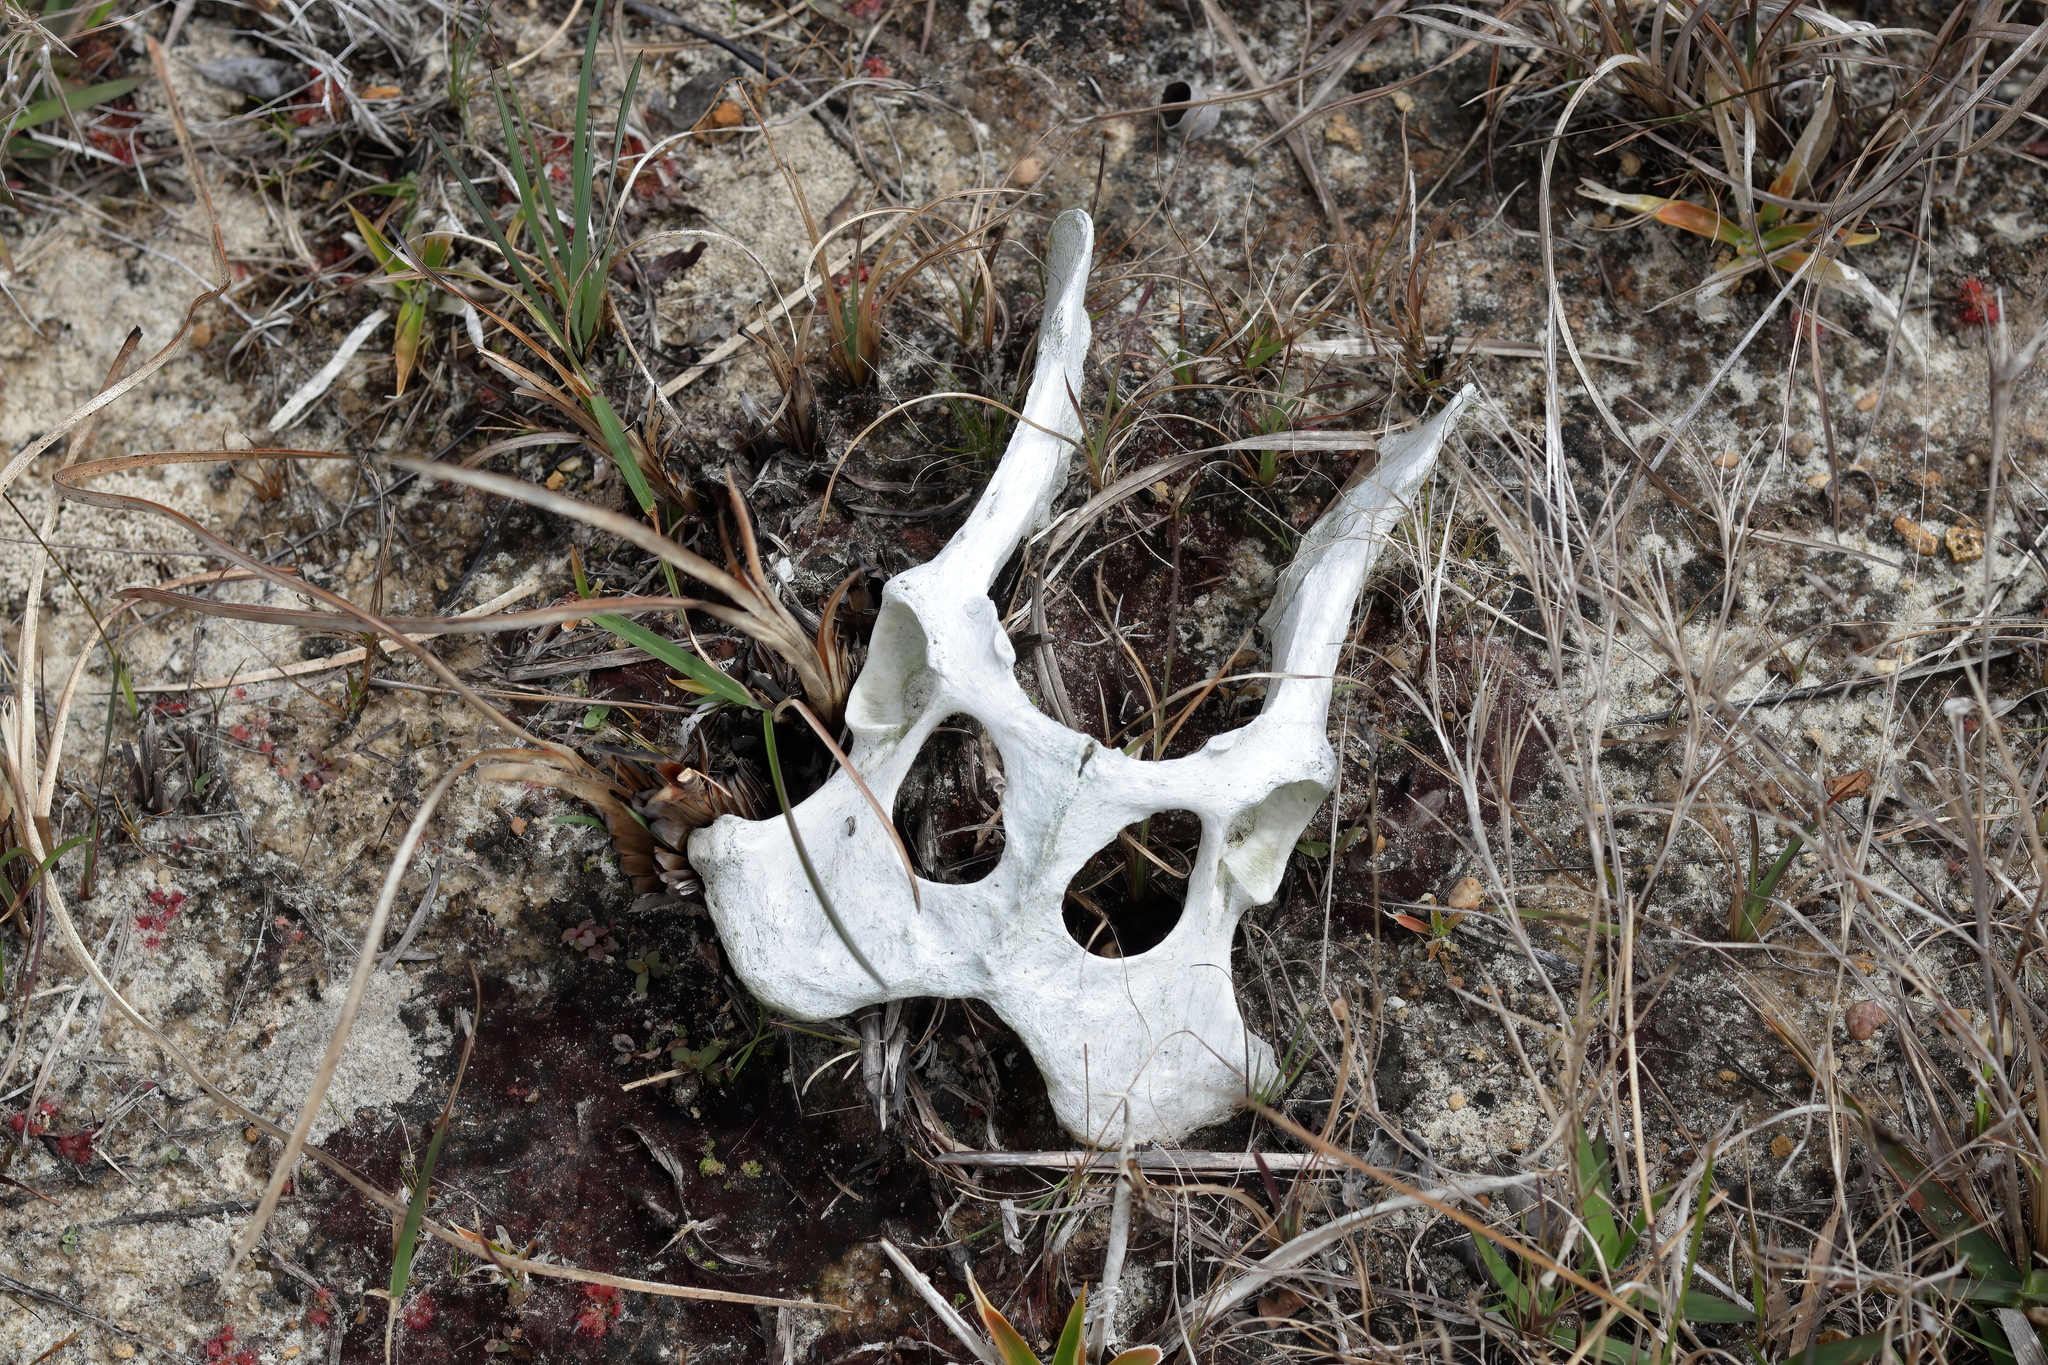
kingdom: Animalia
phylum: Chordata
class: Mammalia
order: Carnivora
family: Canidae
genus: Canis
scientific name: Canis latrans
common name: Coyote
